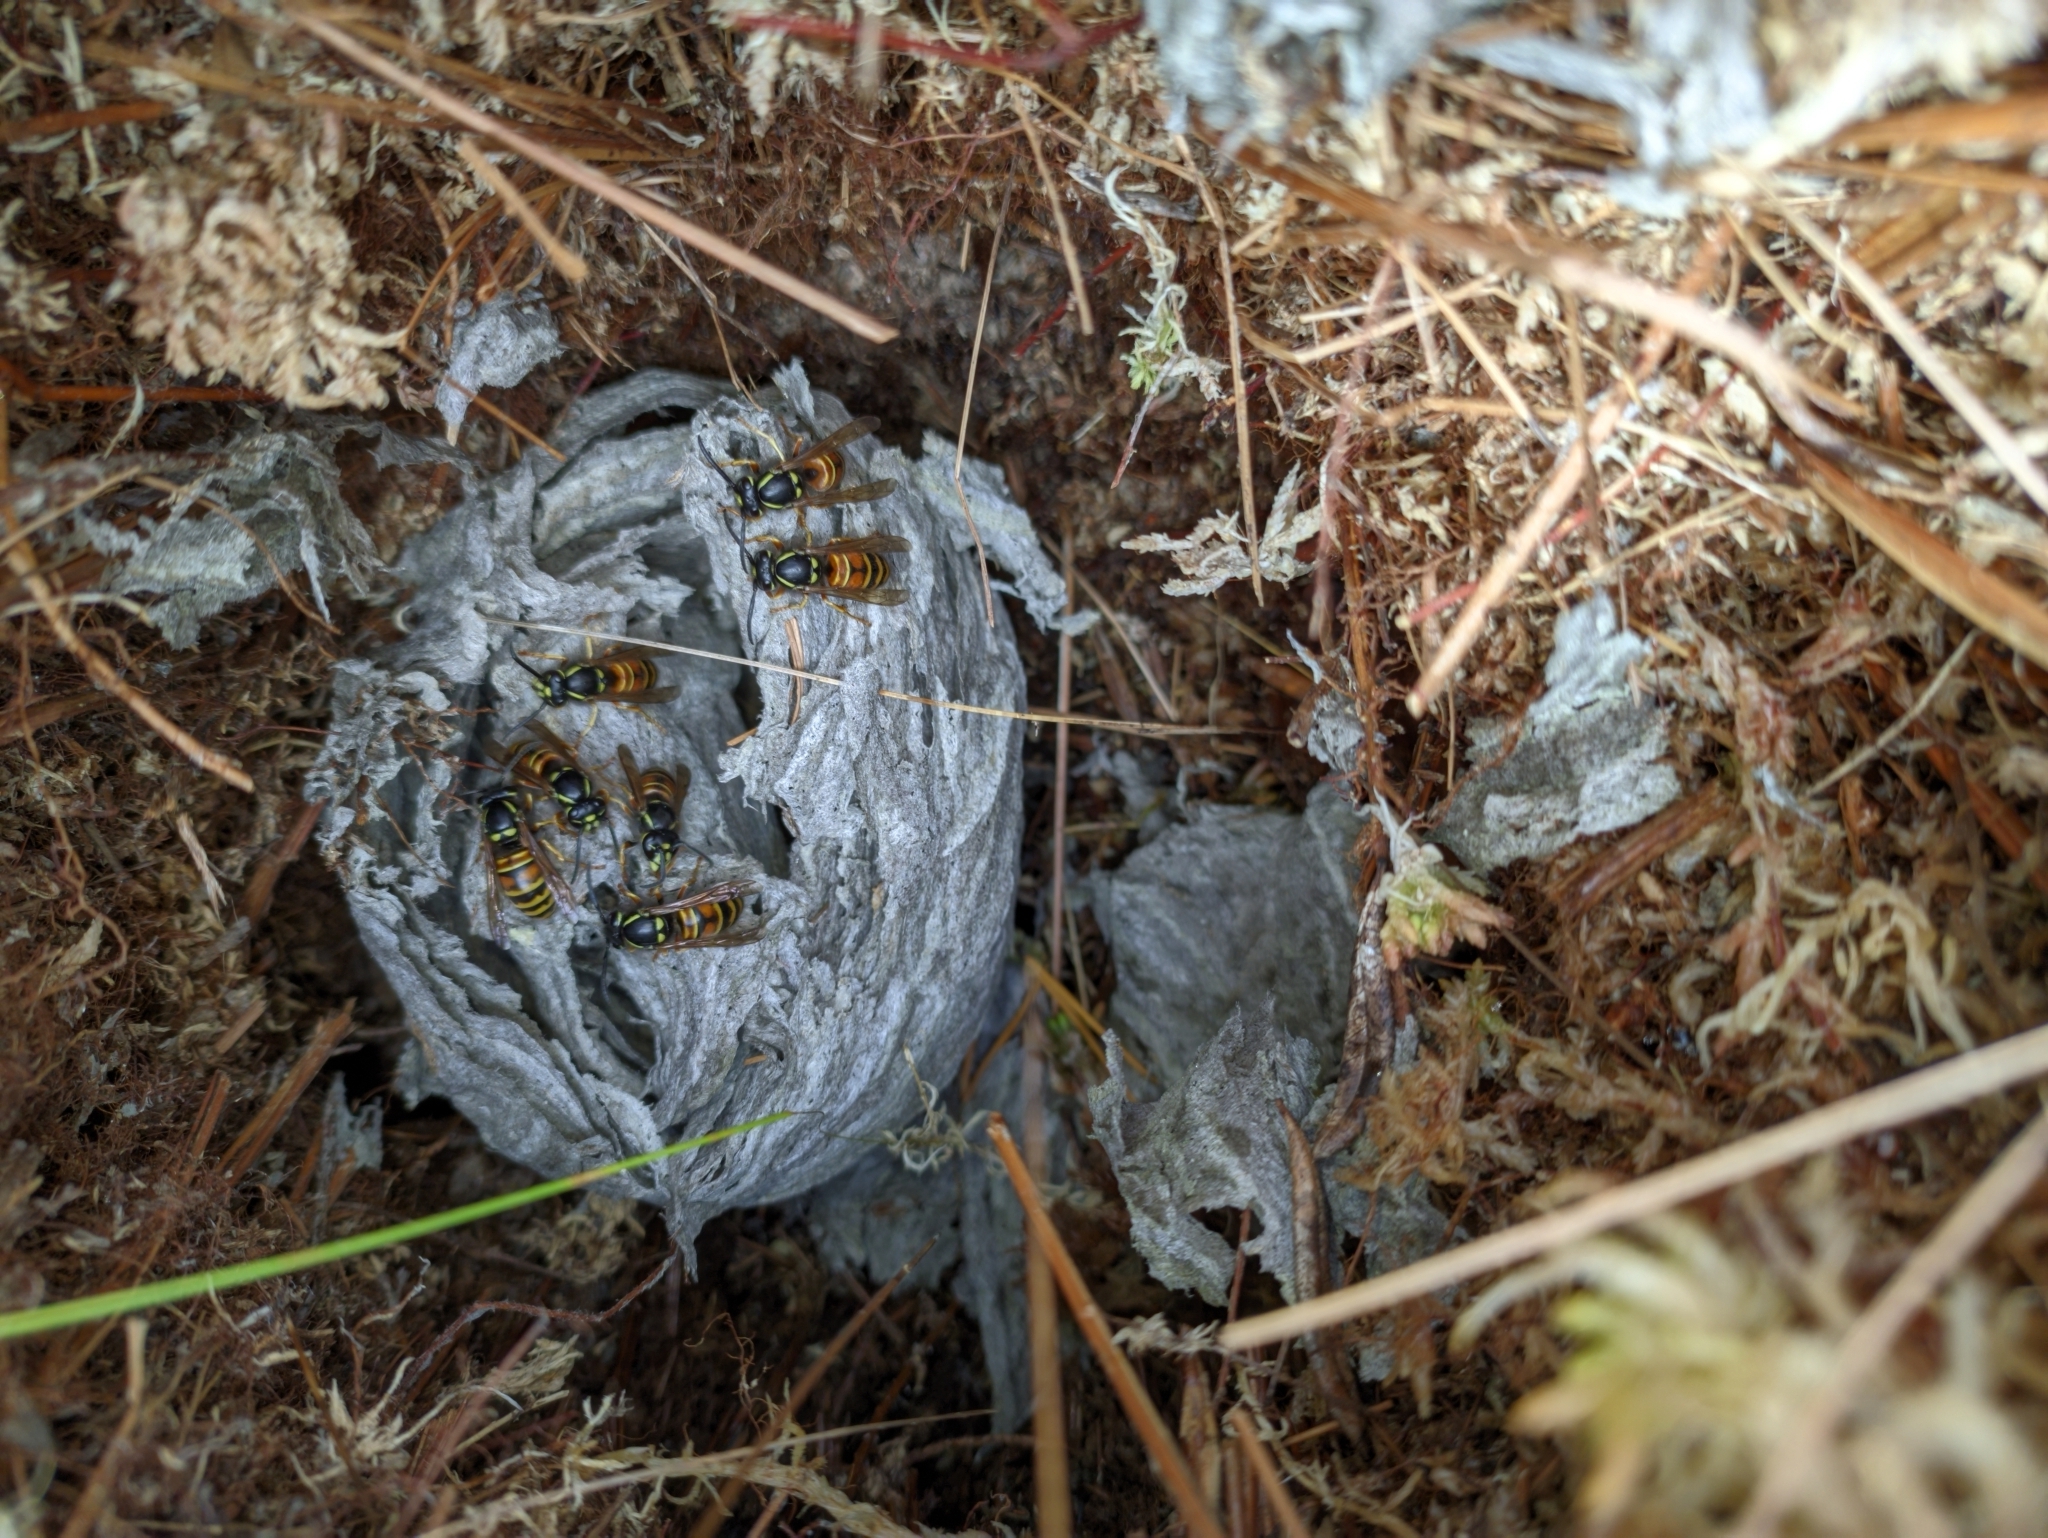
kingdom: Animalia
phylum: Arthropoda
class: Insecta
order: Hymenoptera
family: Vespidae
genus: Vespula
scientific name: Vespula rufa
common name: Red wasp
